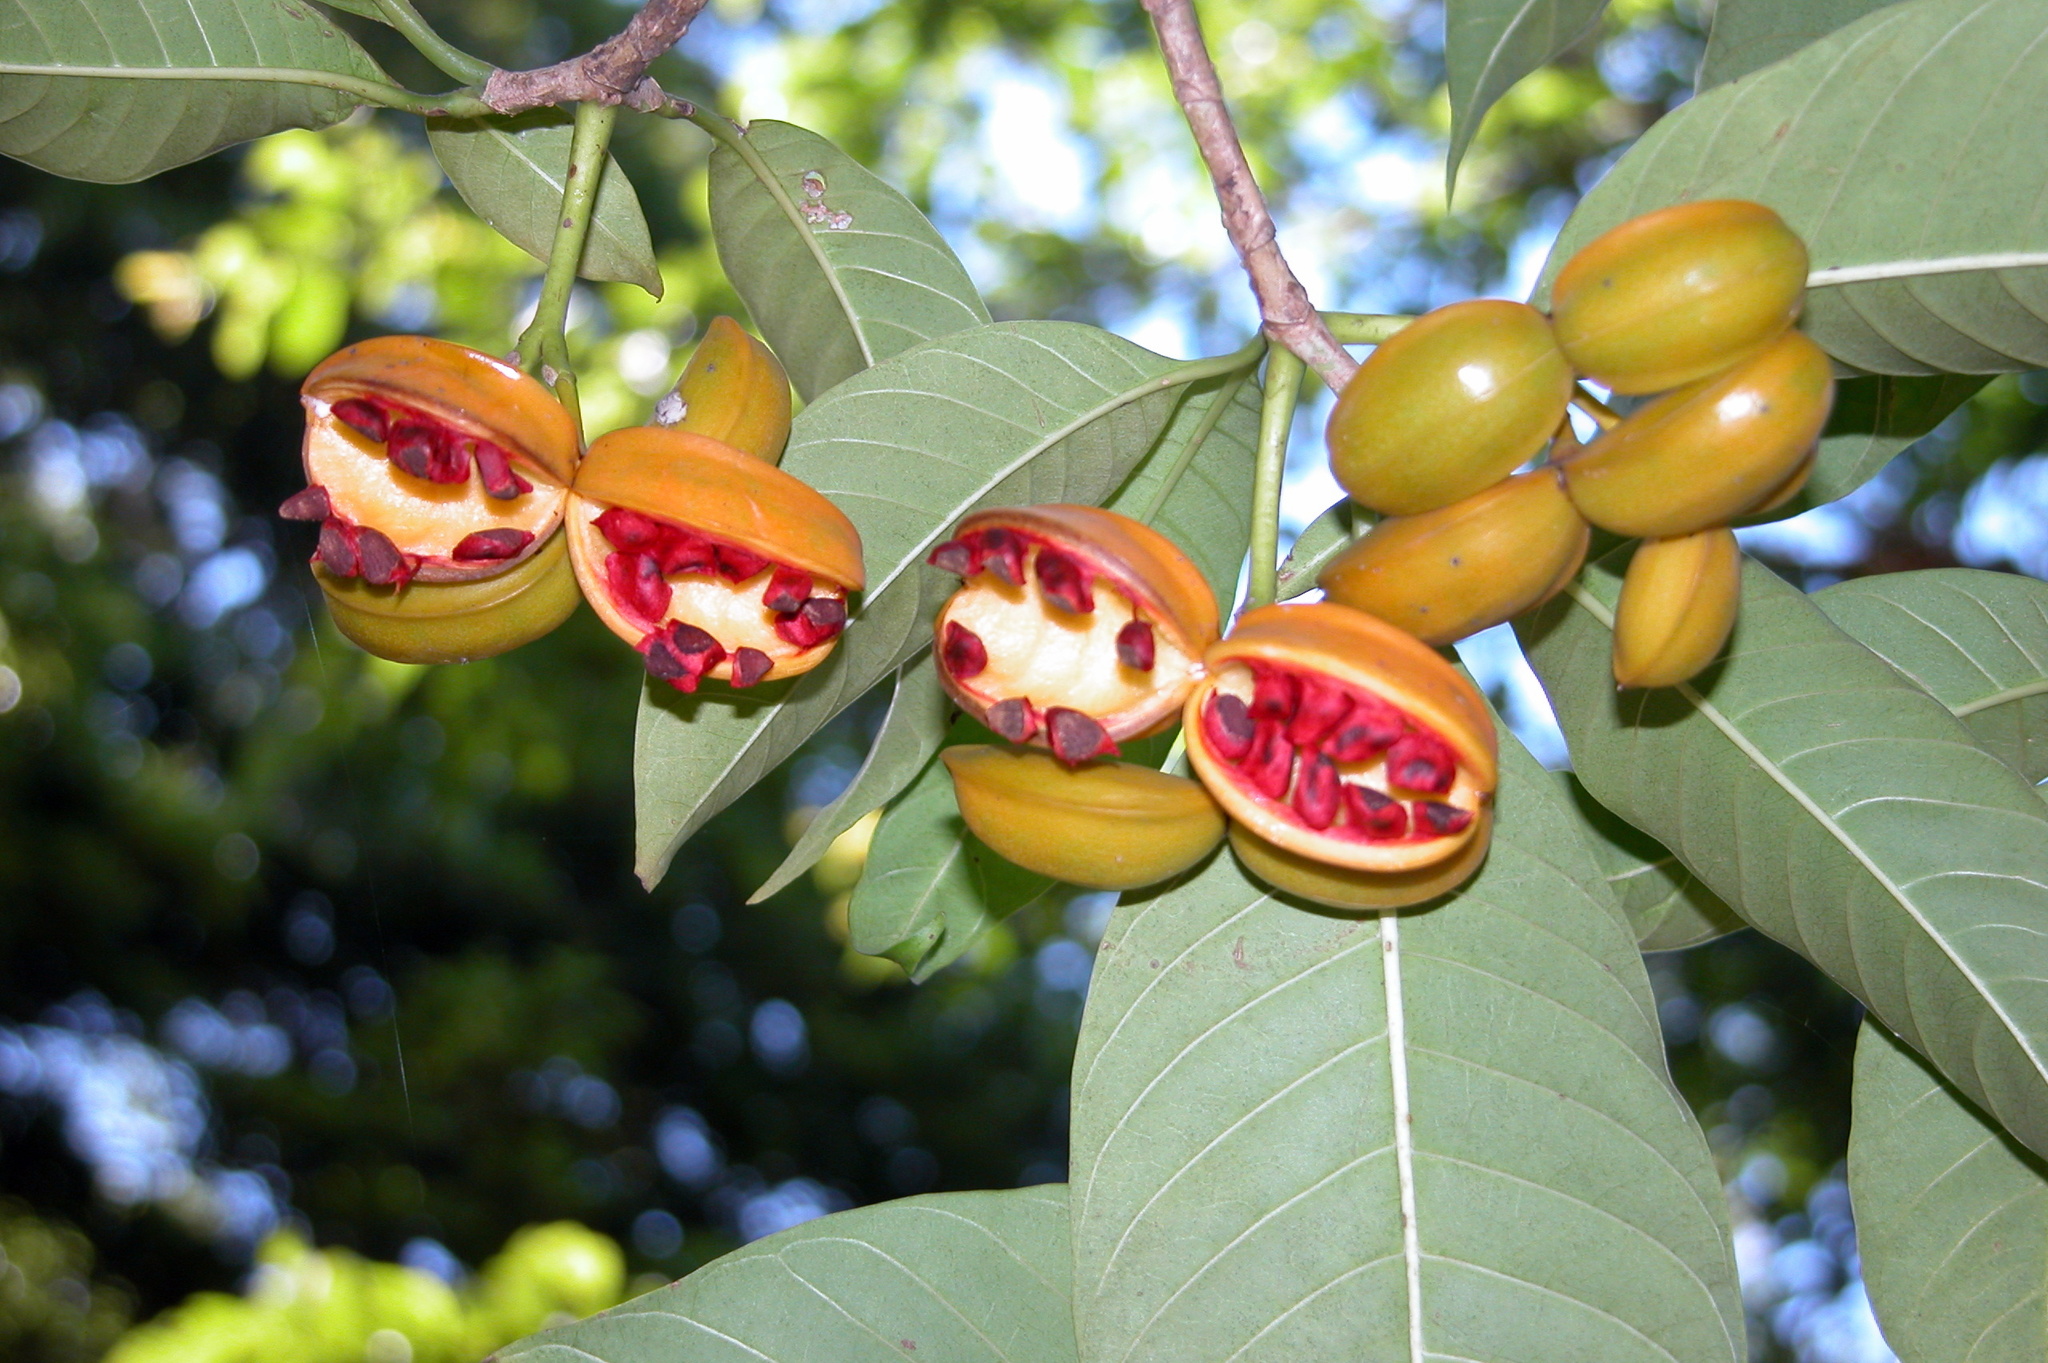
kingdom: Plantae
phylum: Tracheophyta
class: Magnoliopsida
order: Gentianales
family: Apocynaceae
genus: Tabernaemontana
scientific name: Tabernaemontana alternifolia
